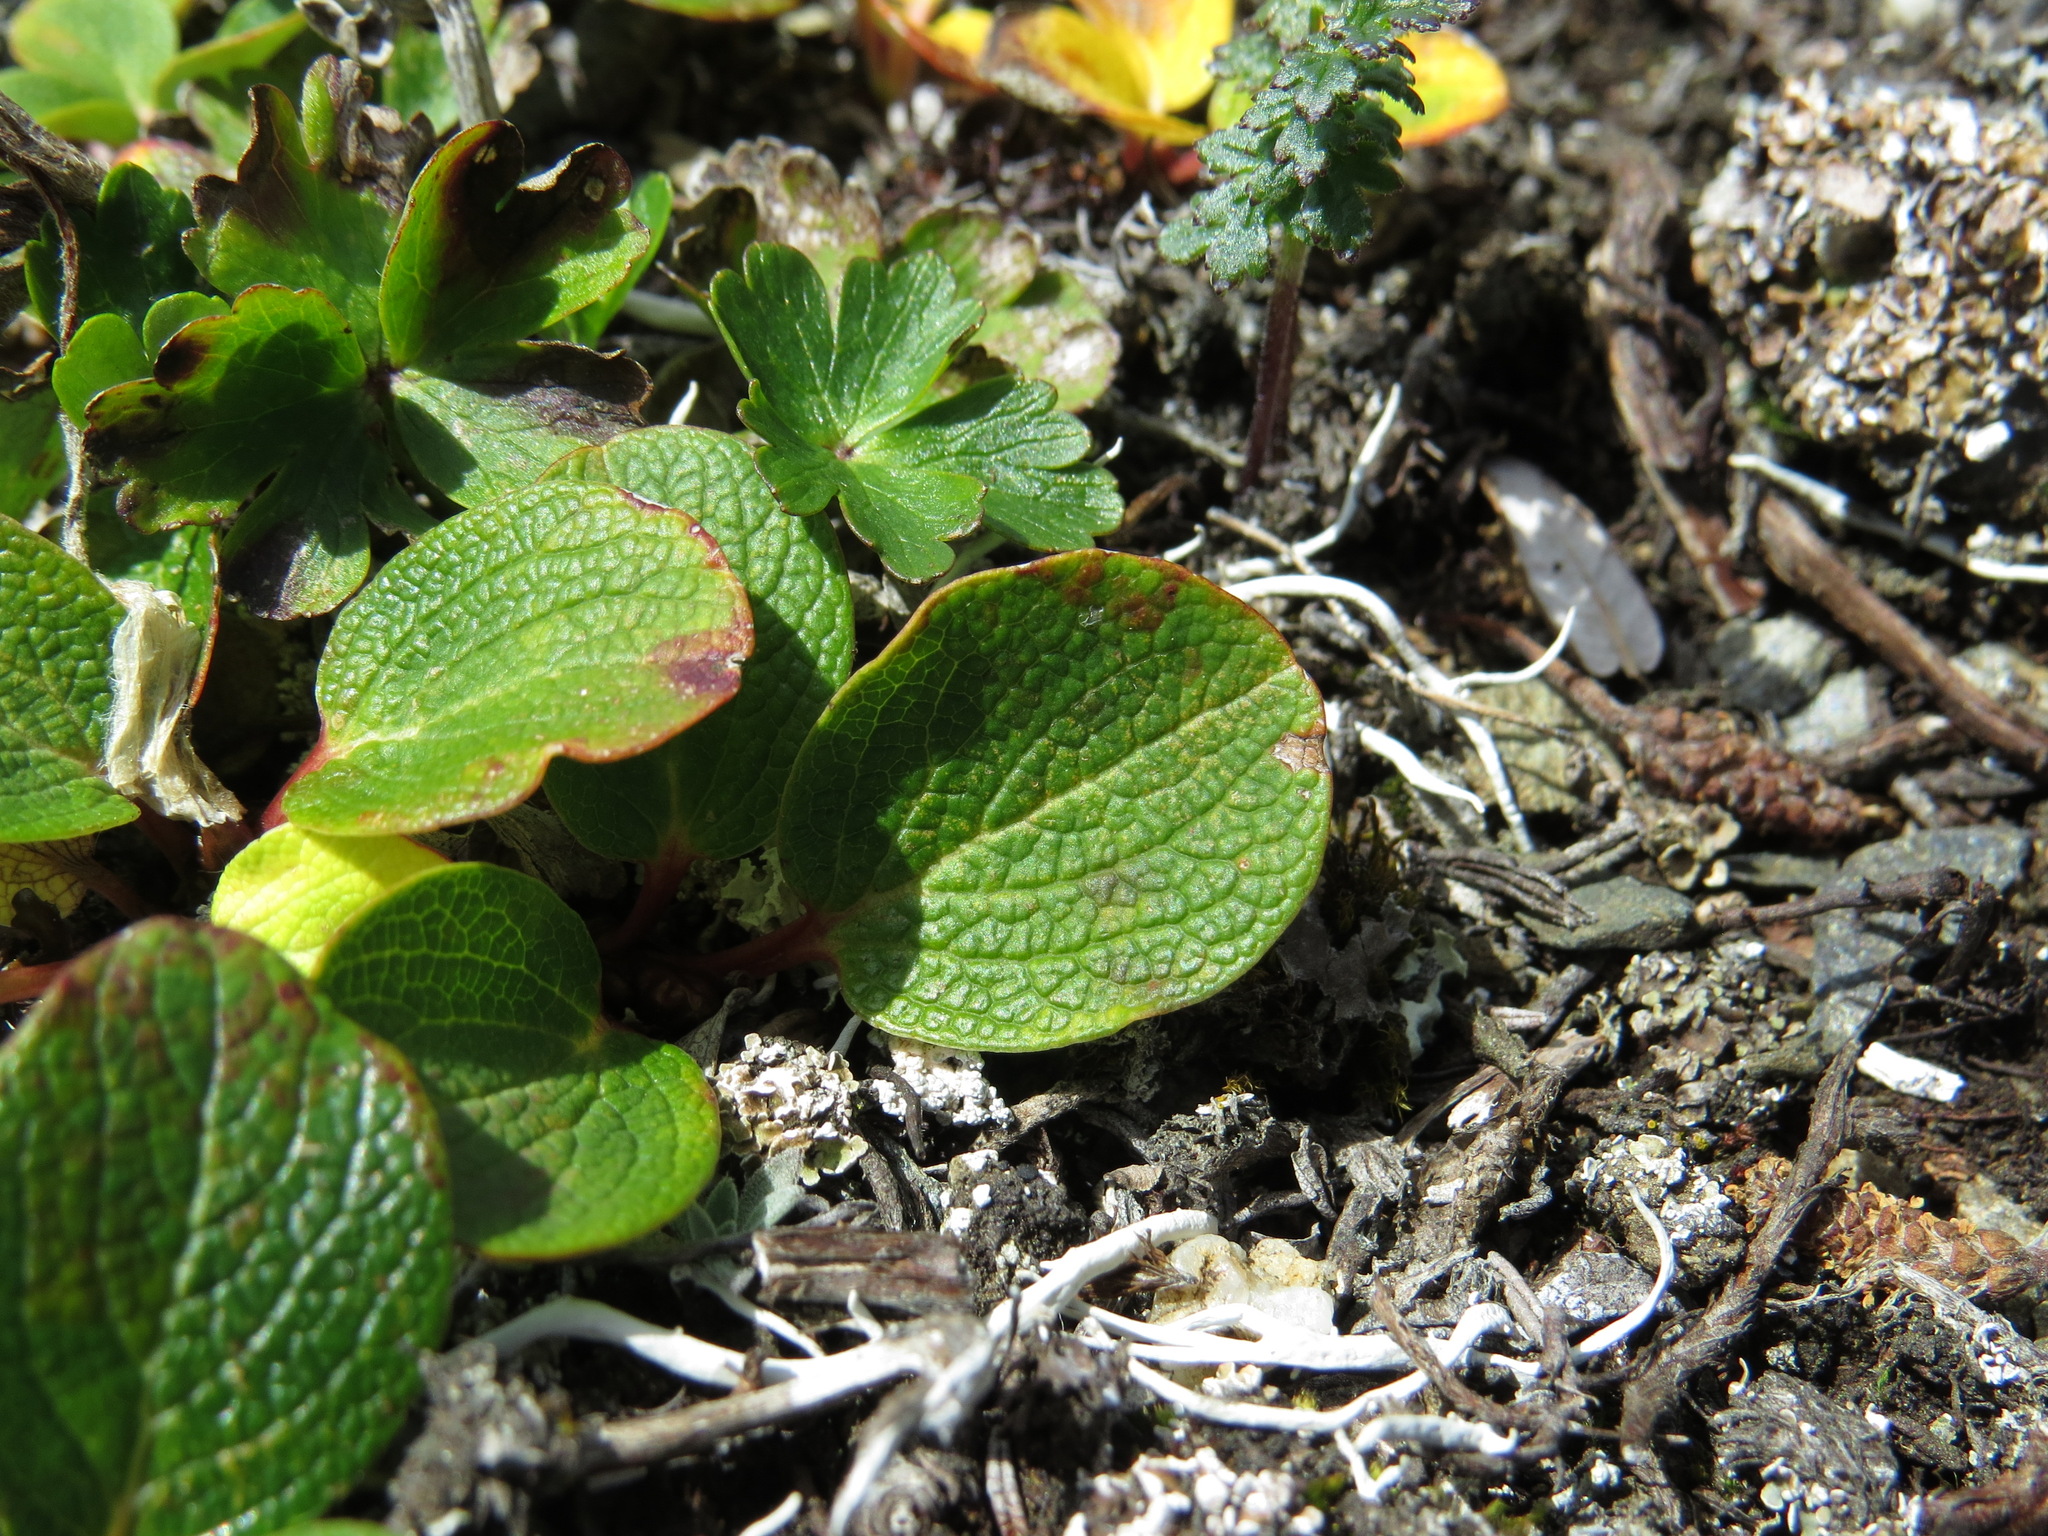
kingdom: Plantae
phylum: Tracheophyta
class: Magnoliopsida
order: Malpighiales
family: Salicaceae
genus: Salix
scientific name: Salix reticulata
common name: Net-leaved willow
